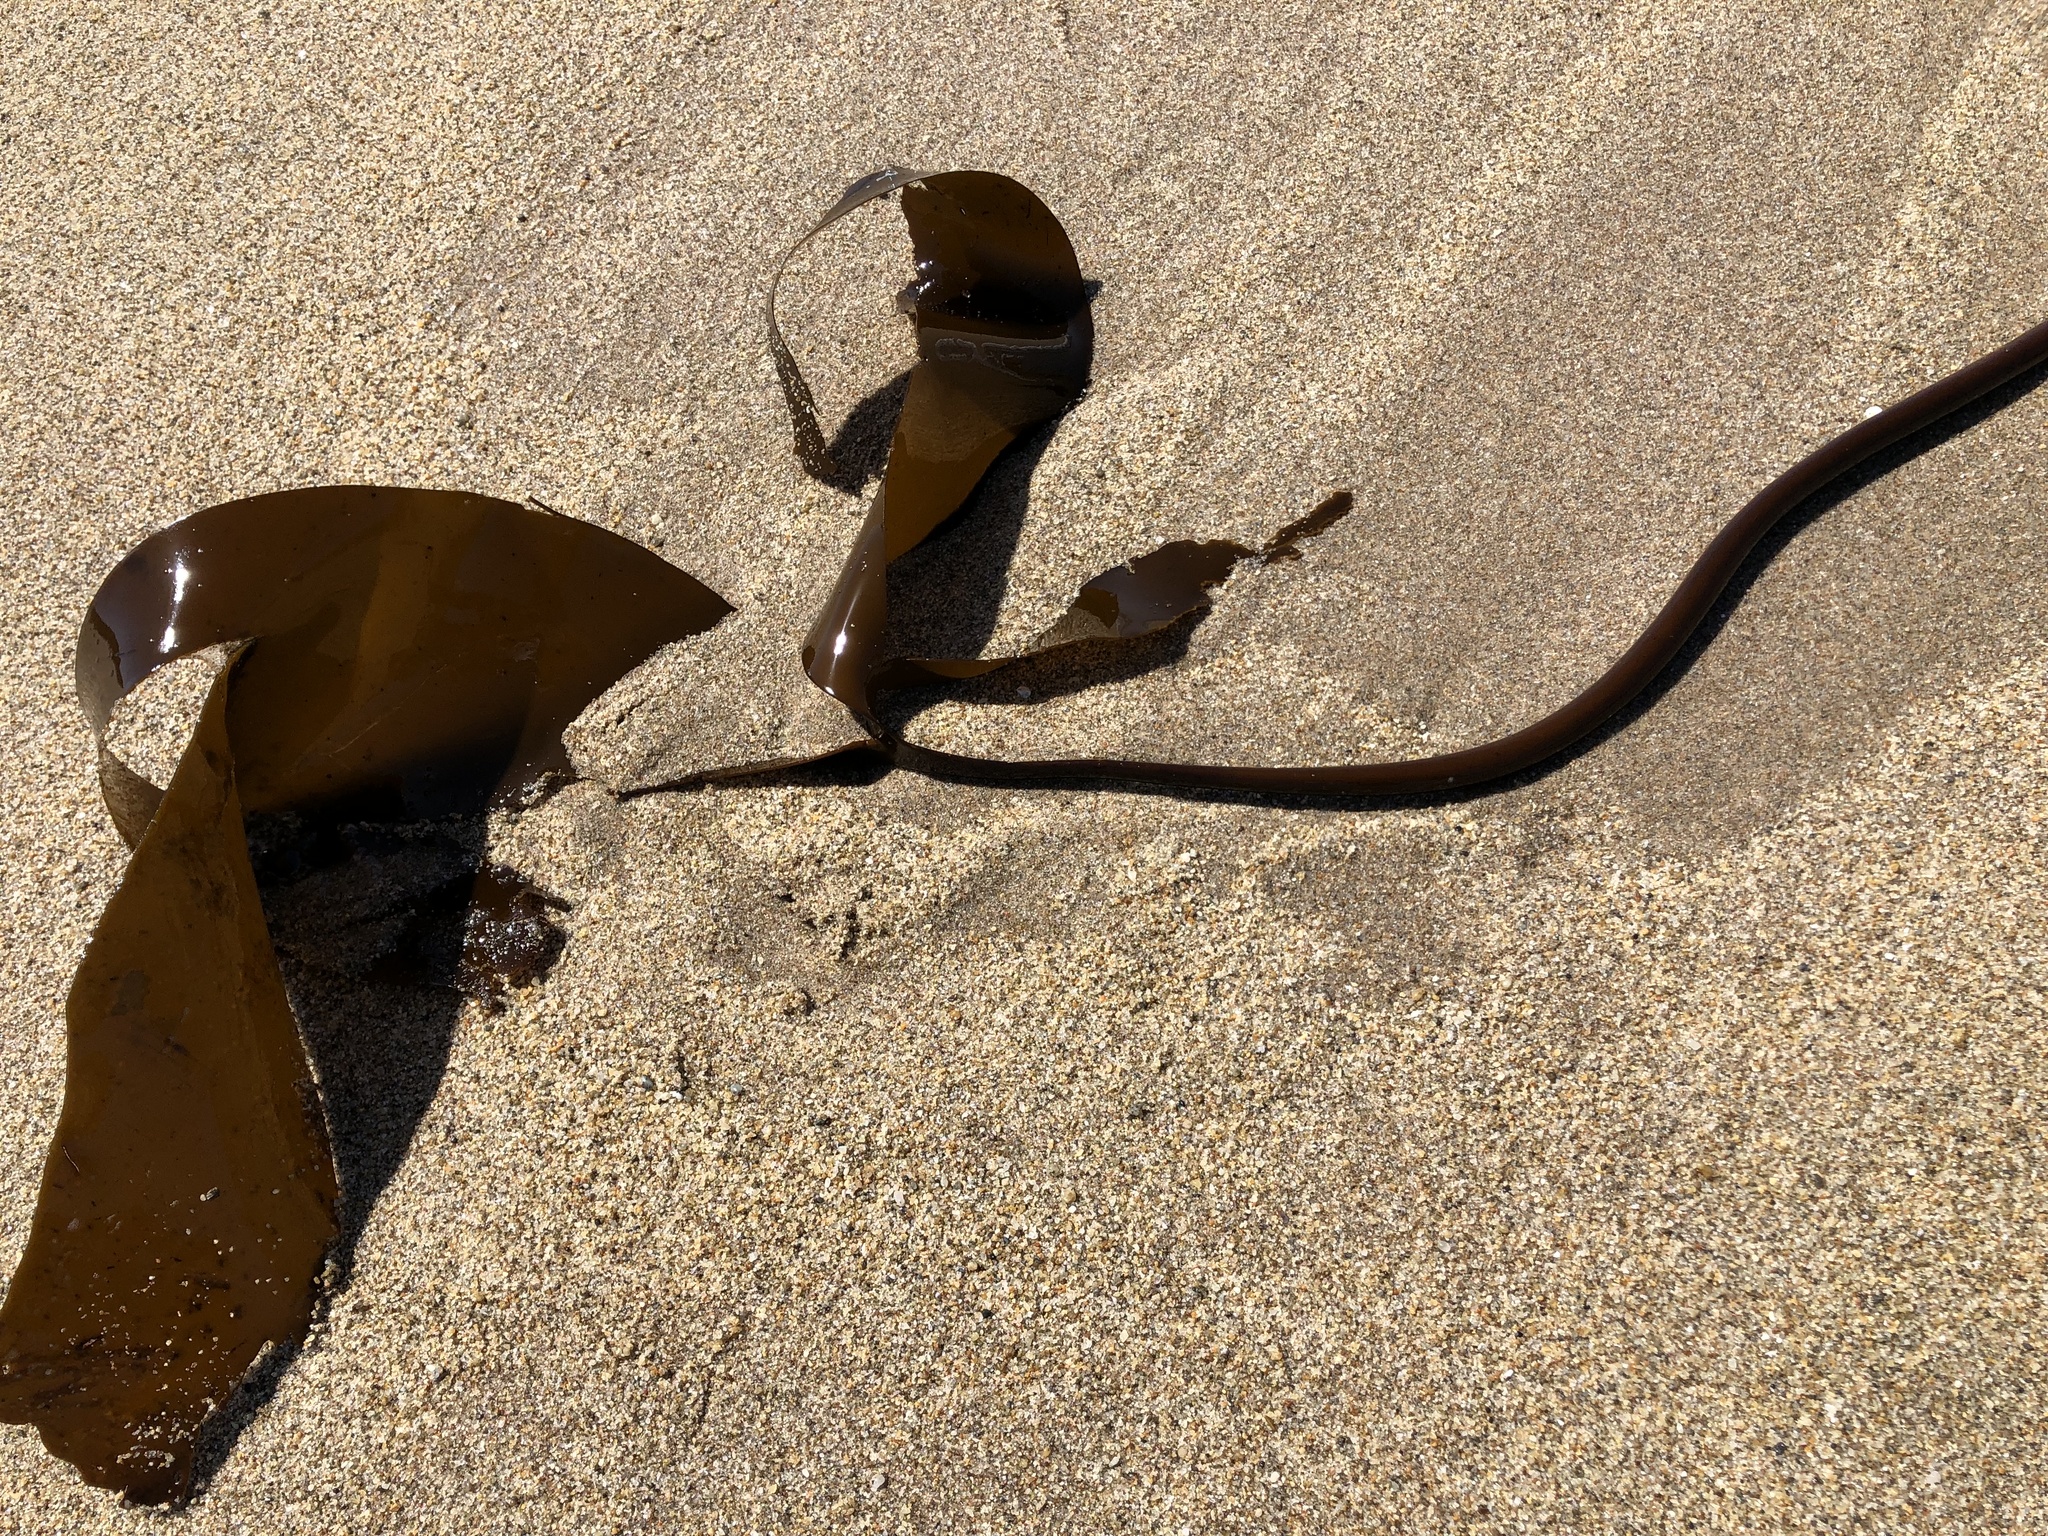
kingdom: Chromista
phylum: Ochrophyta
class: Phaeophyceae
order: Laminariales
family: Laminariaceae
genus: Laminaria
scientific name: Laminaria setchellii
